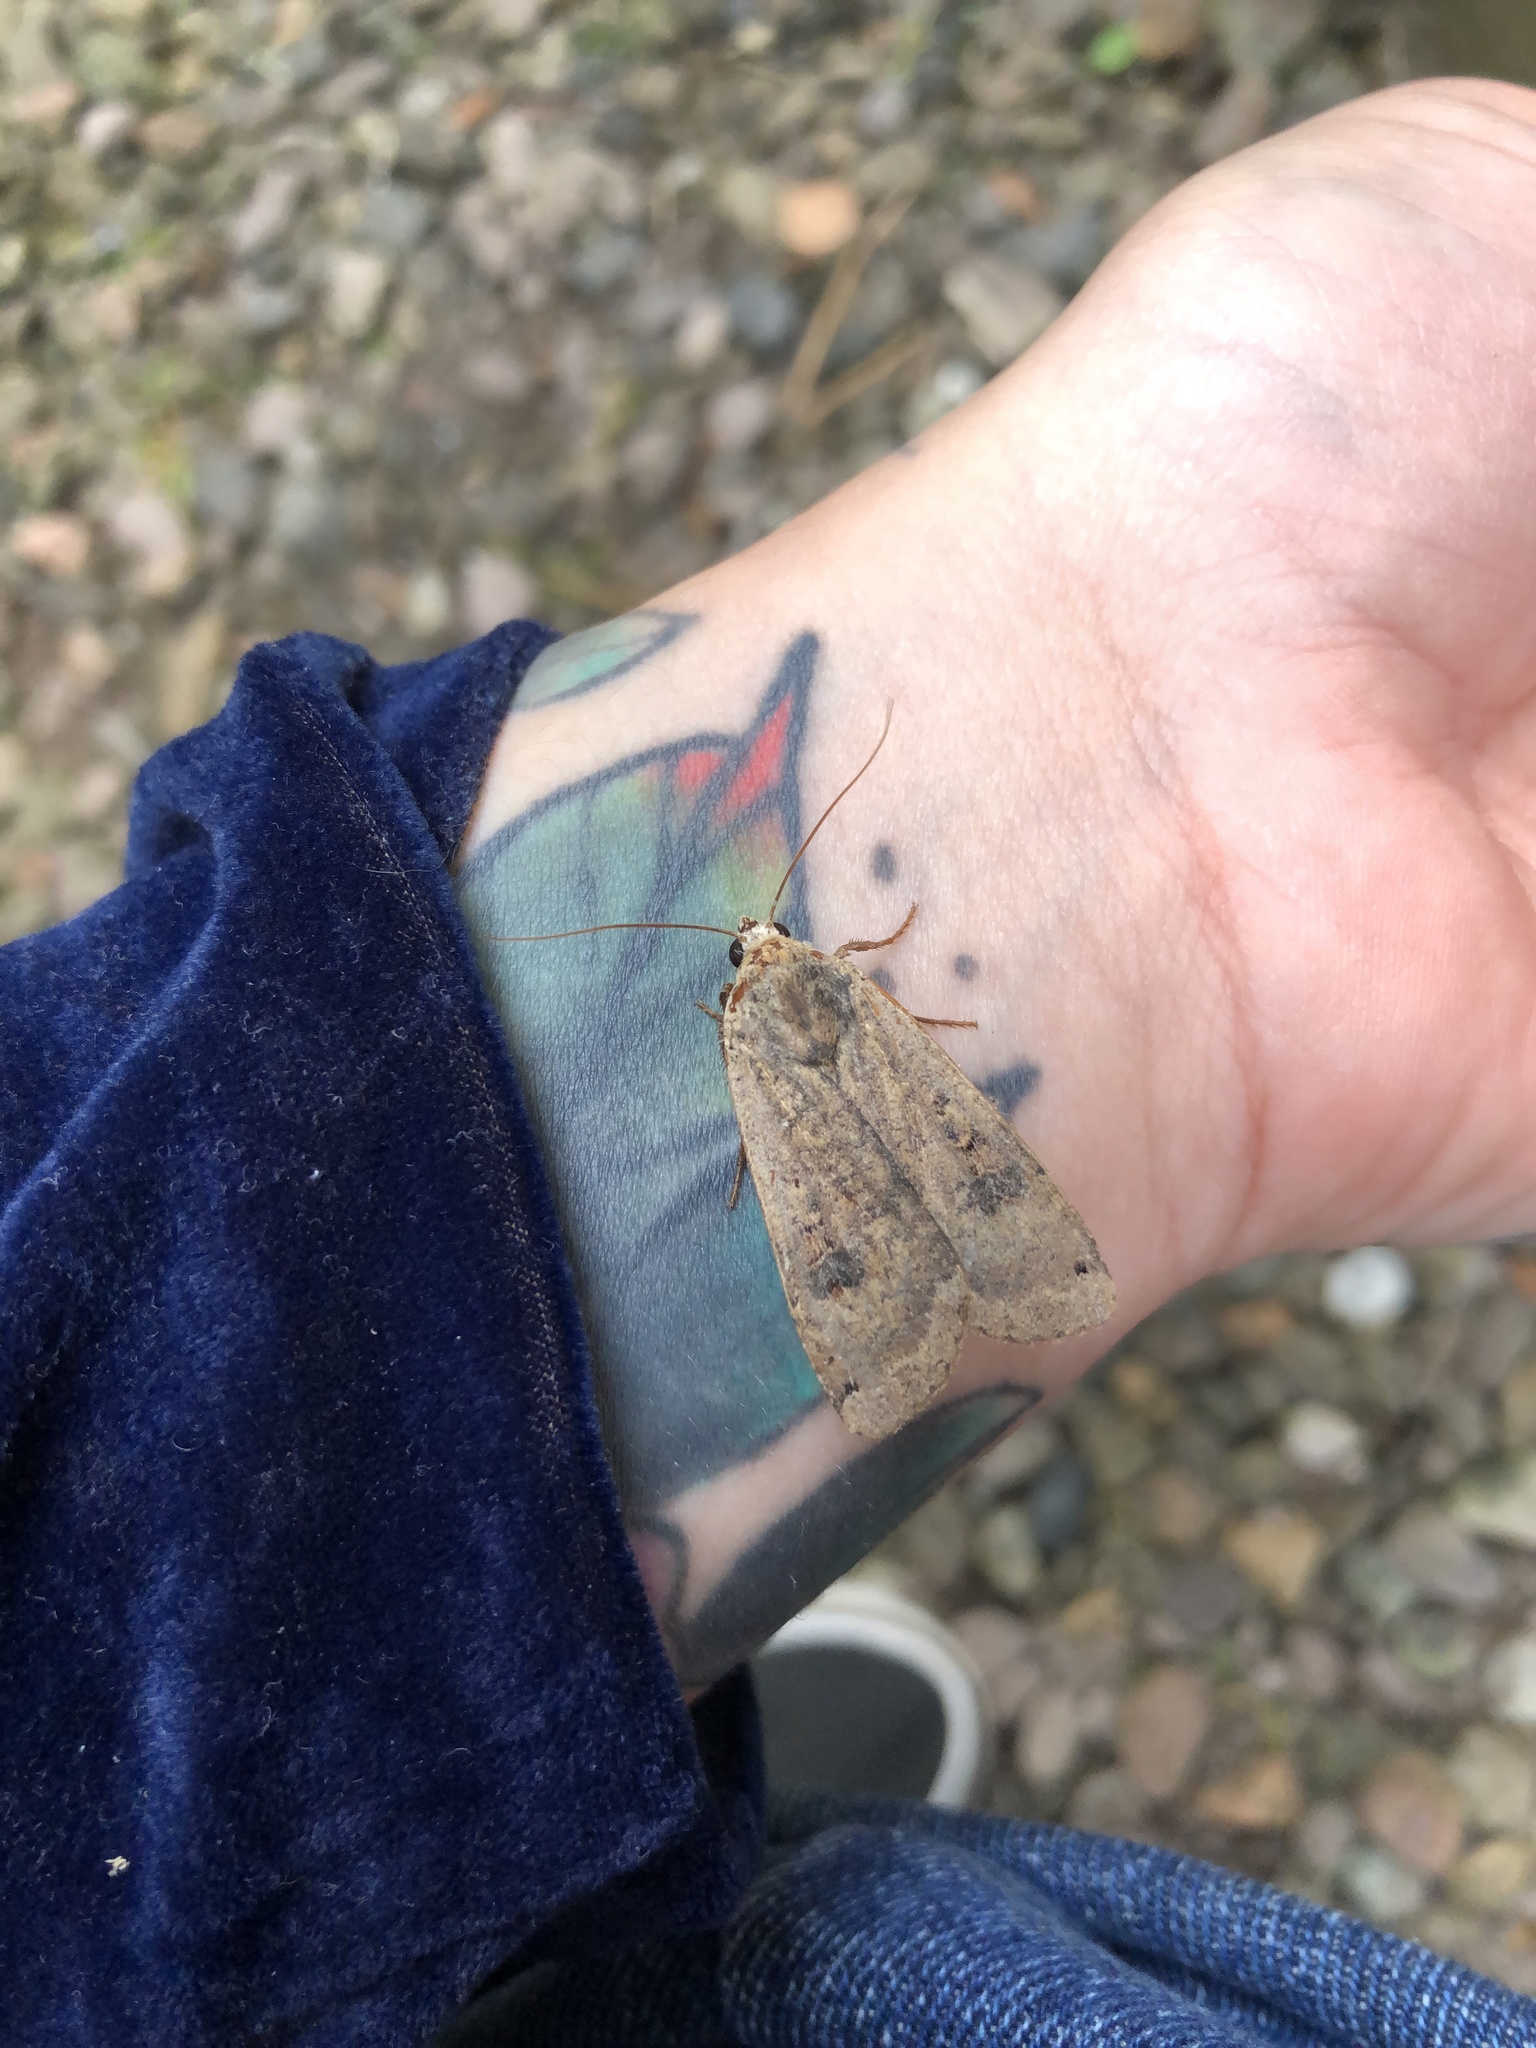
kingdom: Animalia
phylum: Arthropoda
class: Insecta
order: Lepidoptera
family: Noctuidae
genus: Noctua
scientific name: Noctua pronuba
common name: Large yellow underwing
